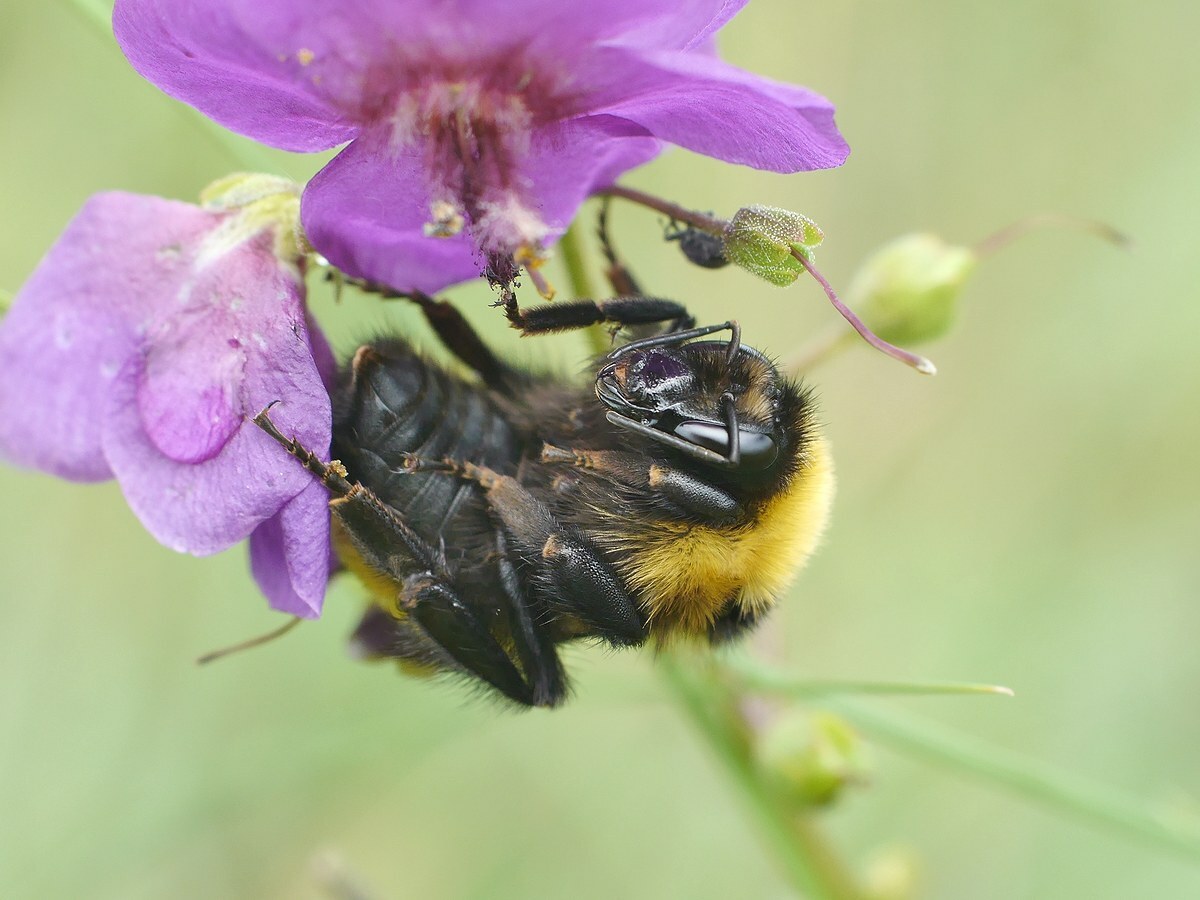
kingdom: Animalia
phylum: Arthropoda
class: Insecta
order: Hymenoptera
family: Apidae
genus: Bombus
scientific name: Bombus
